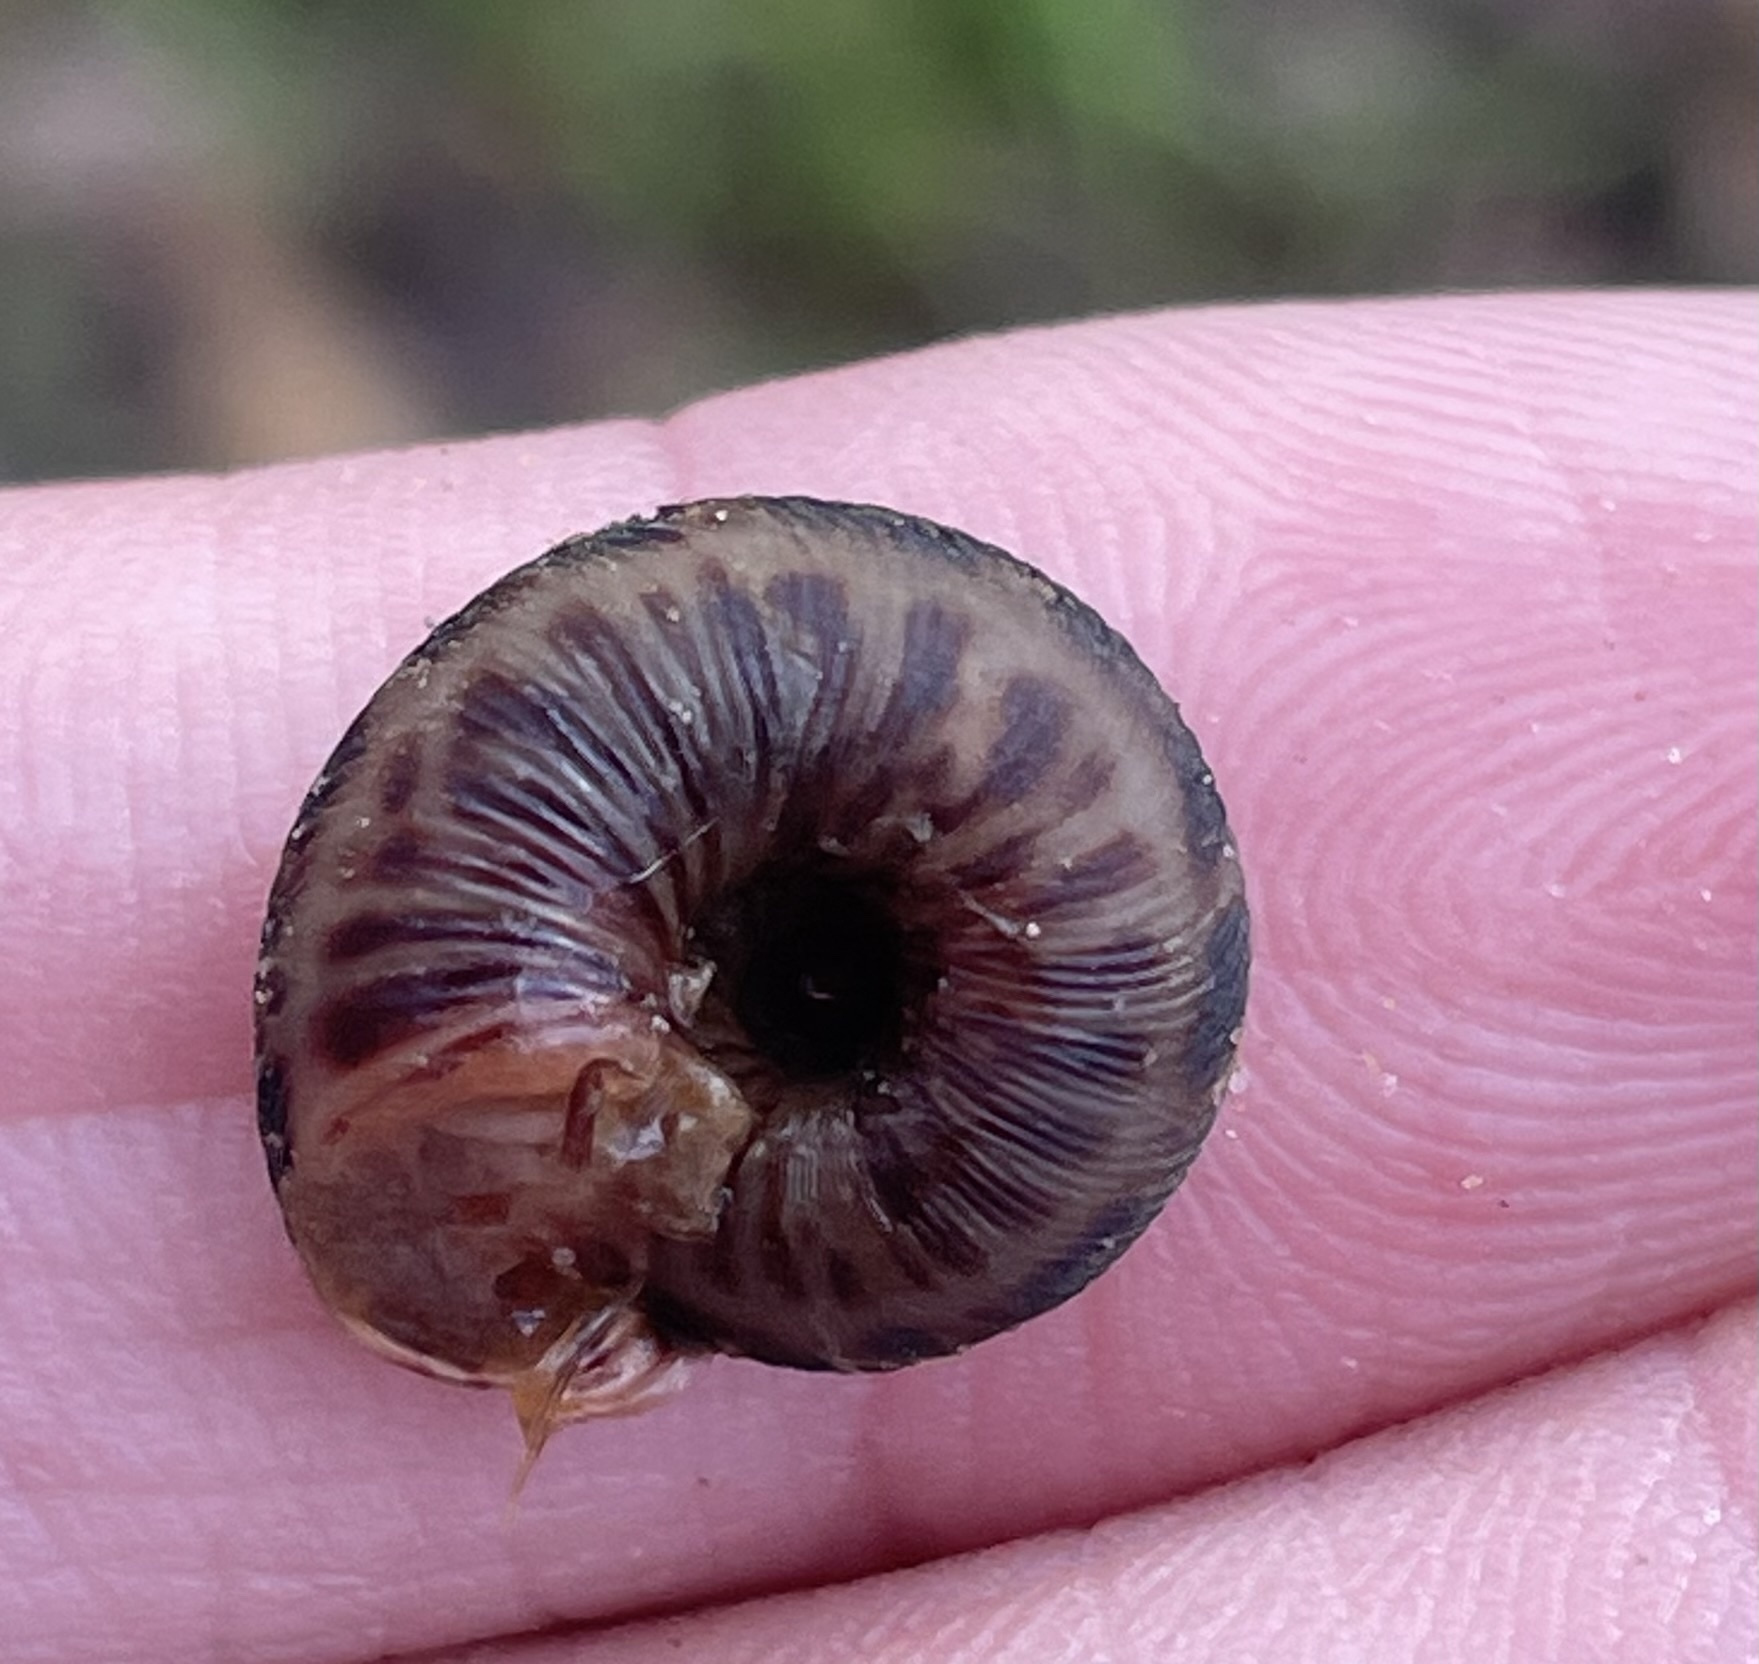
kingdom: Animalia
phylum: Mollusca
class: Gastropoda
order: Stylommatophora
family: Discidae
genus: Anguispira
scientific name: Anguispira strongylodes
